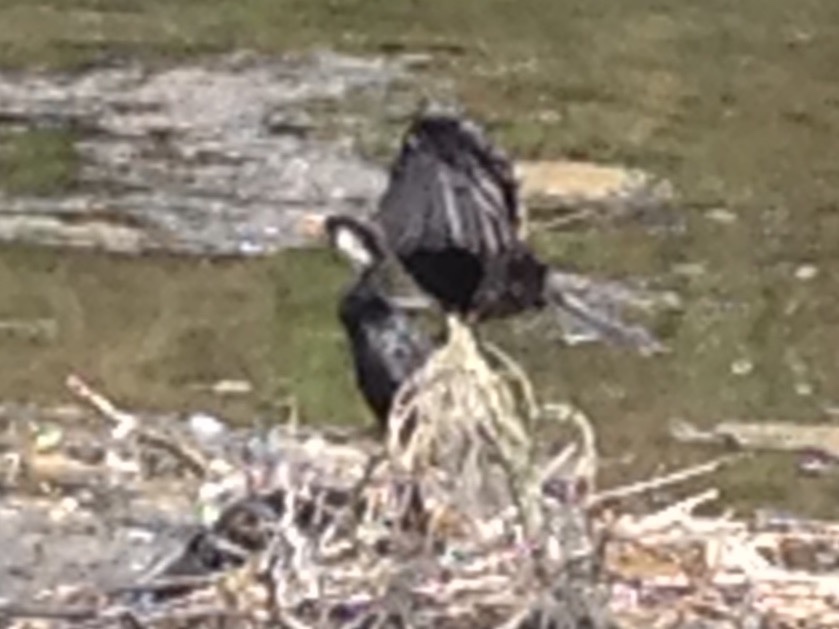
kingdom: Animalia
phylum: Chordata
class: Aves
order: Suliformes
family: Phalacrocoracidae
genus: Microcarbo
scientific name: Microcarbo melanoleucos
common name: Little pied cormorant
